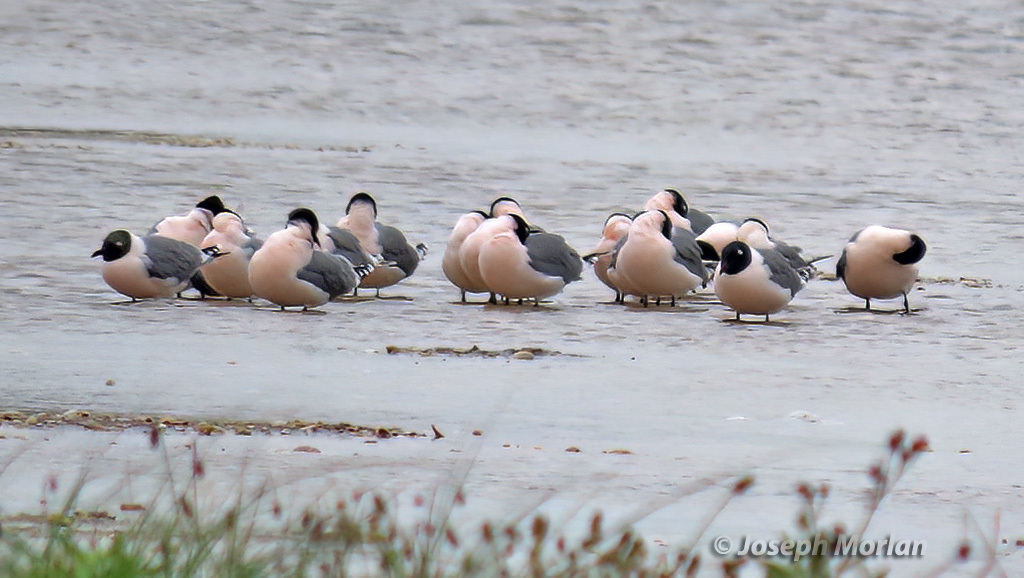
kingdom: Animalia
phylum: Chordata
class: Aves
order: Charadriiformes
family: Laridae
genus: Leucophaeus
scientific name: Leucophaeus pipixcan
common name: Franklin's gull
